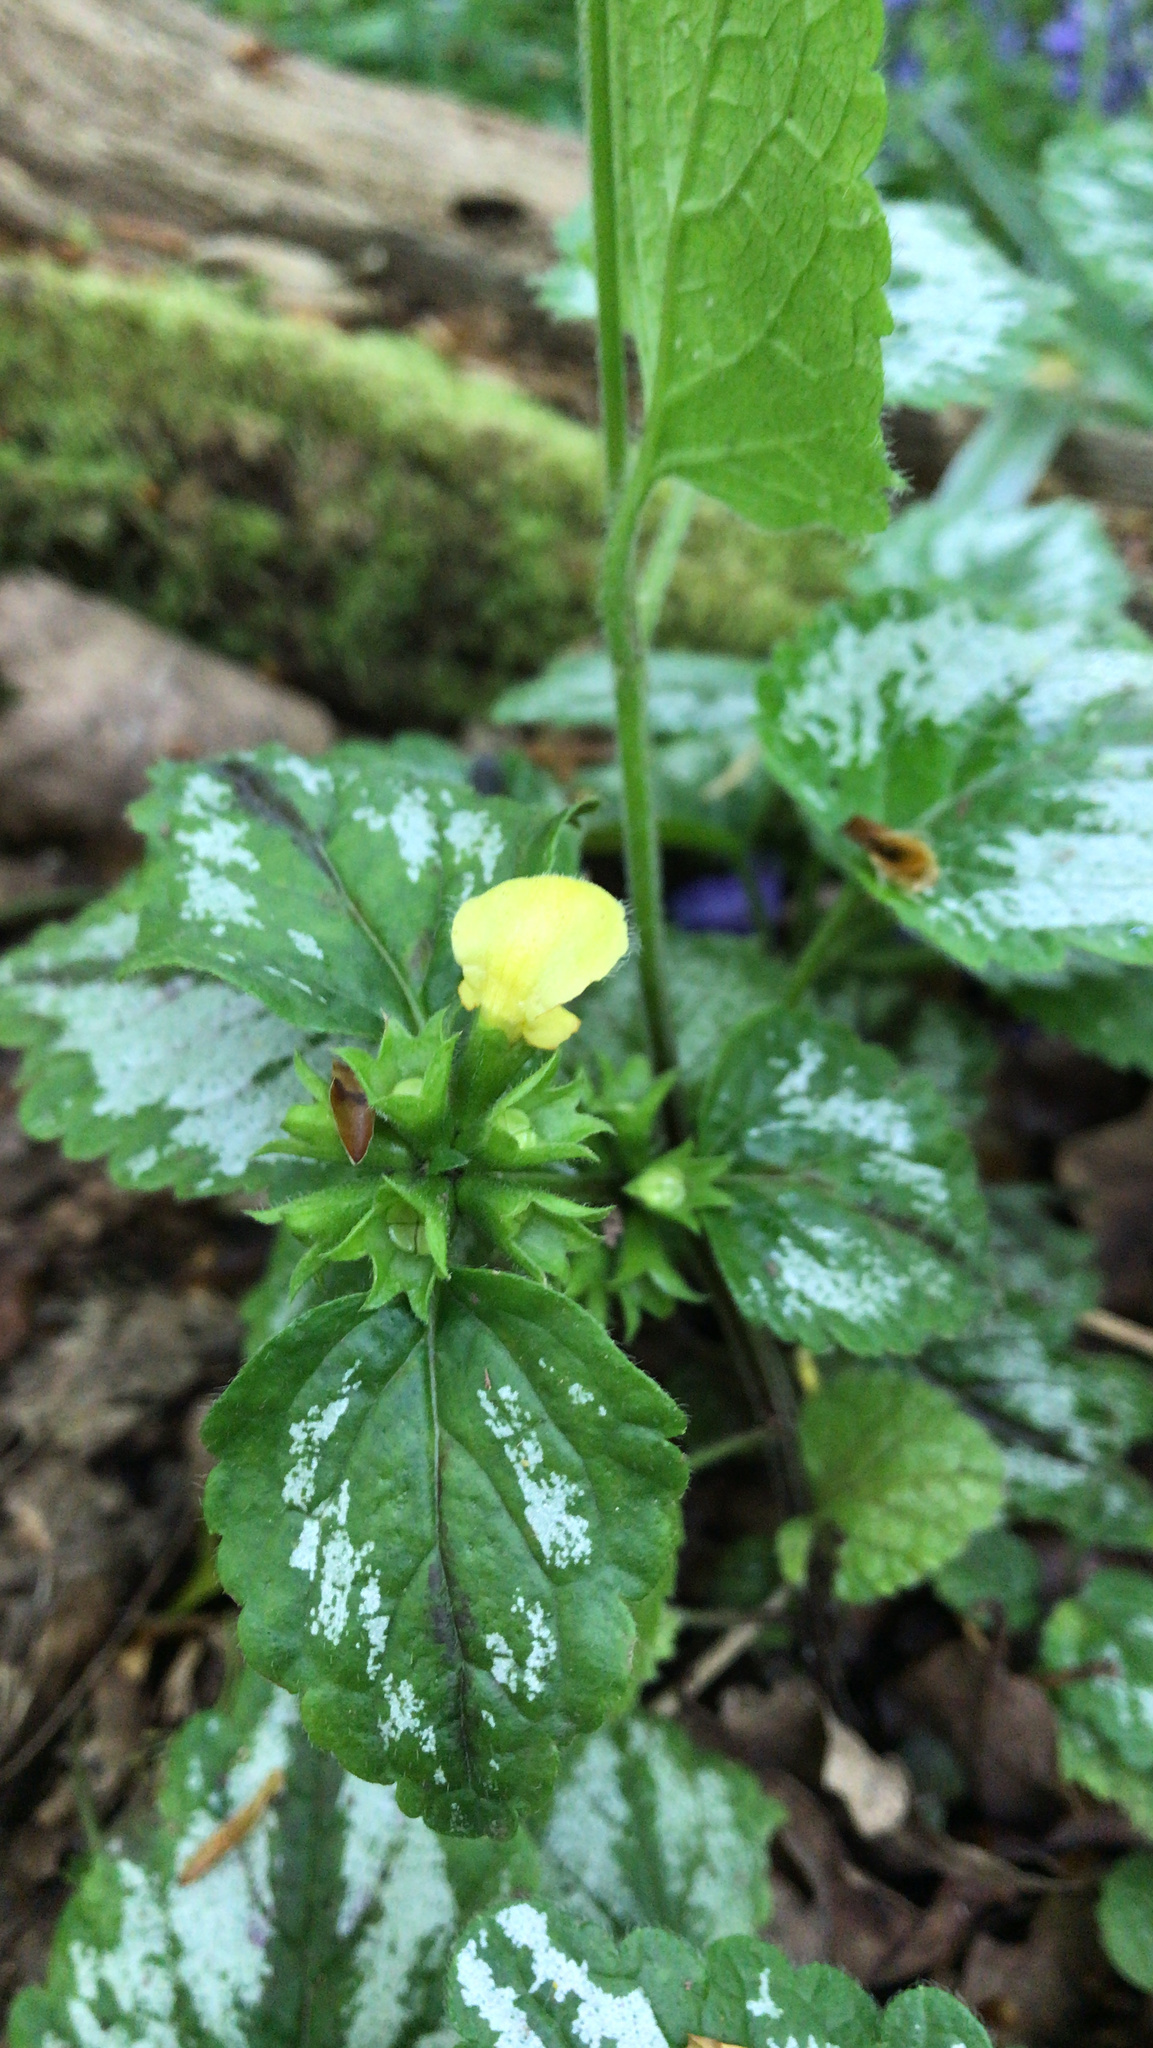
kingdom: Plantae
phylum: Tracheophyta
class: Magnoliopsida
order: Lamiales
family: Lamiaceae
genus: Lamium
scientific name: Lamium galeobdolon
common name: Yellow archangel
